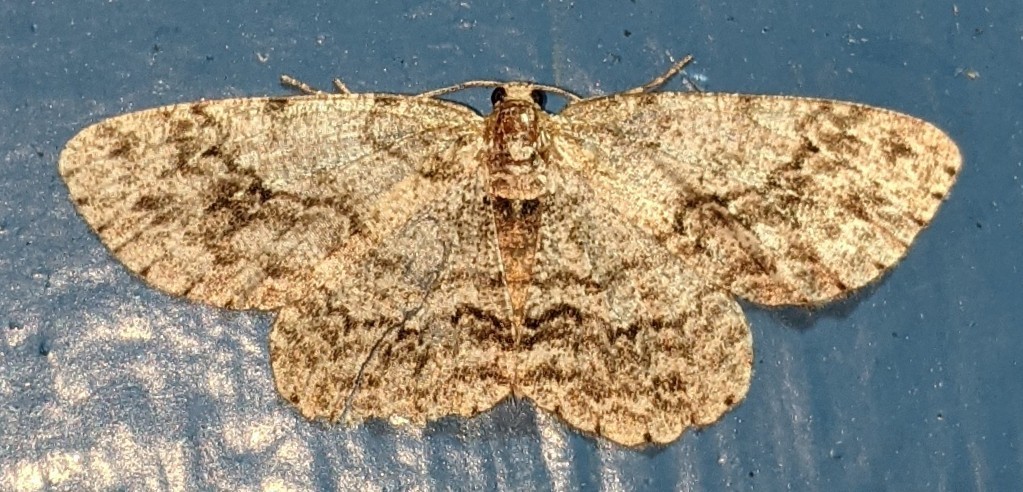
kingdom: Animalia
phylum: Arthropoda
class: Insecta
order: Lepidoptera
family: Geometridae
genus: Ectropis
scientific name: Ectropis crepuscularia
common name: Engrailed
